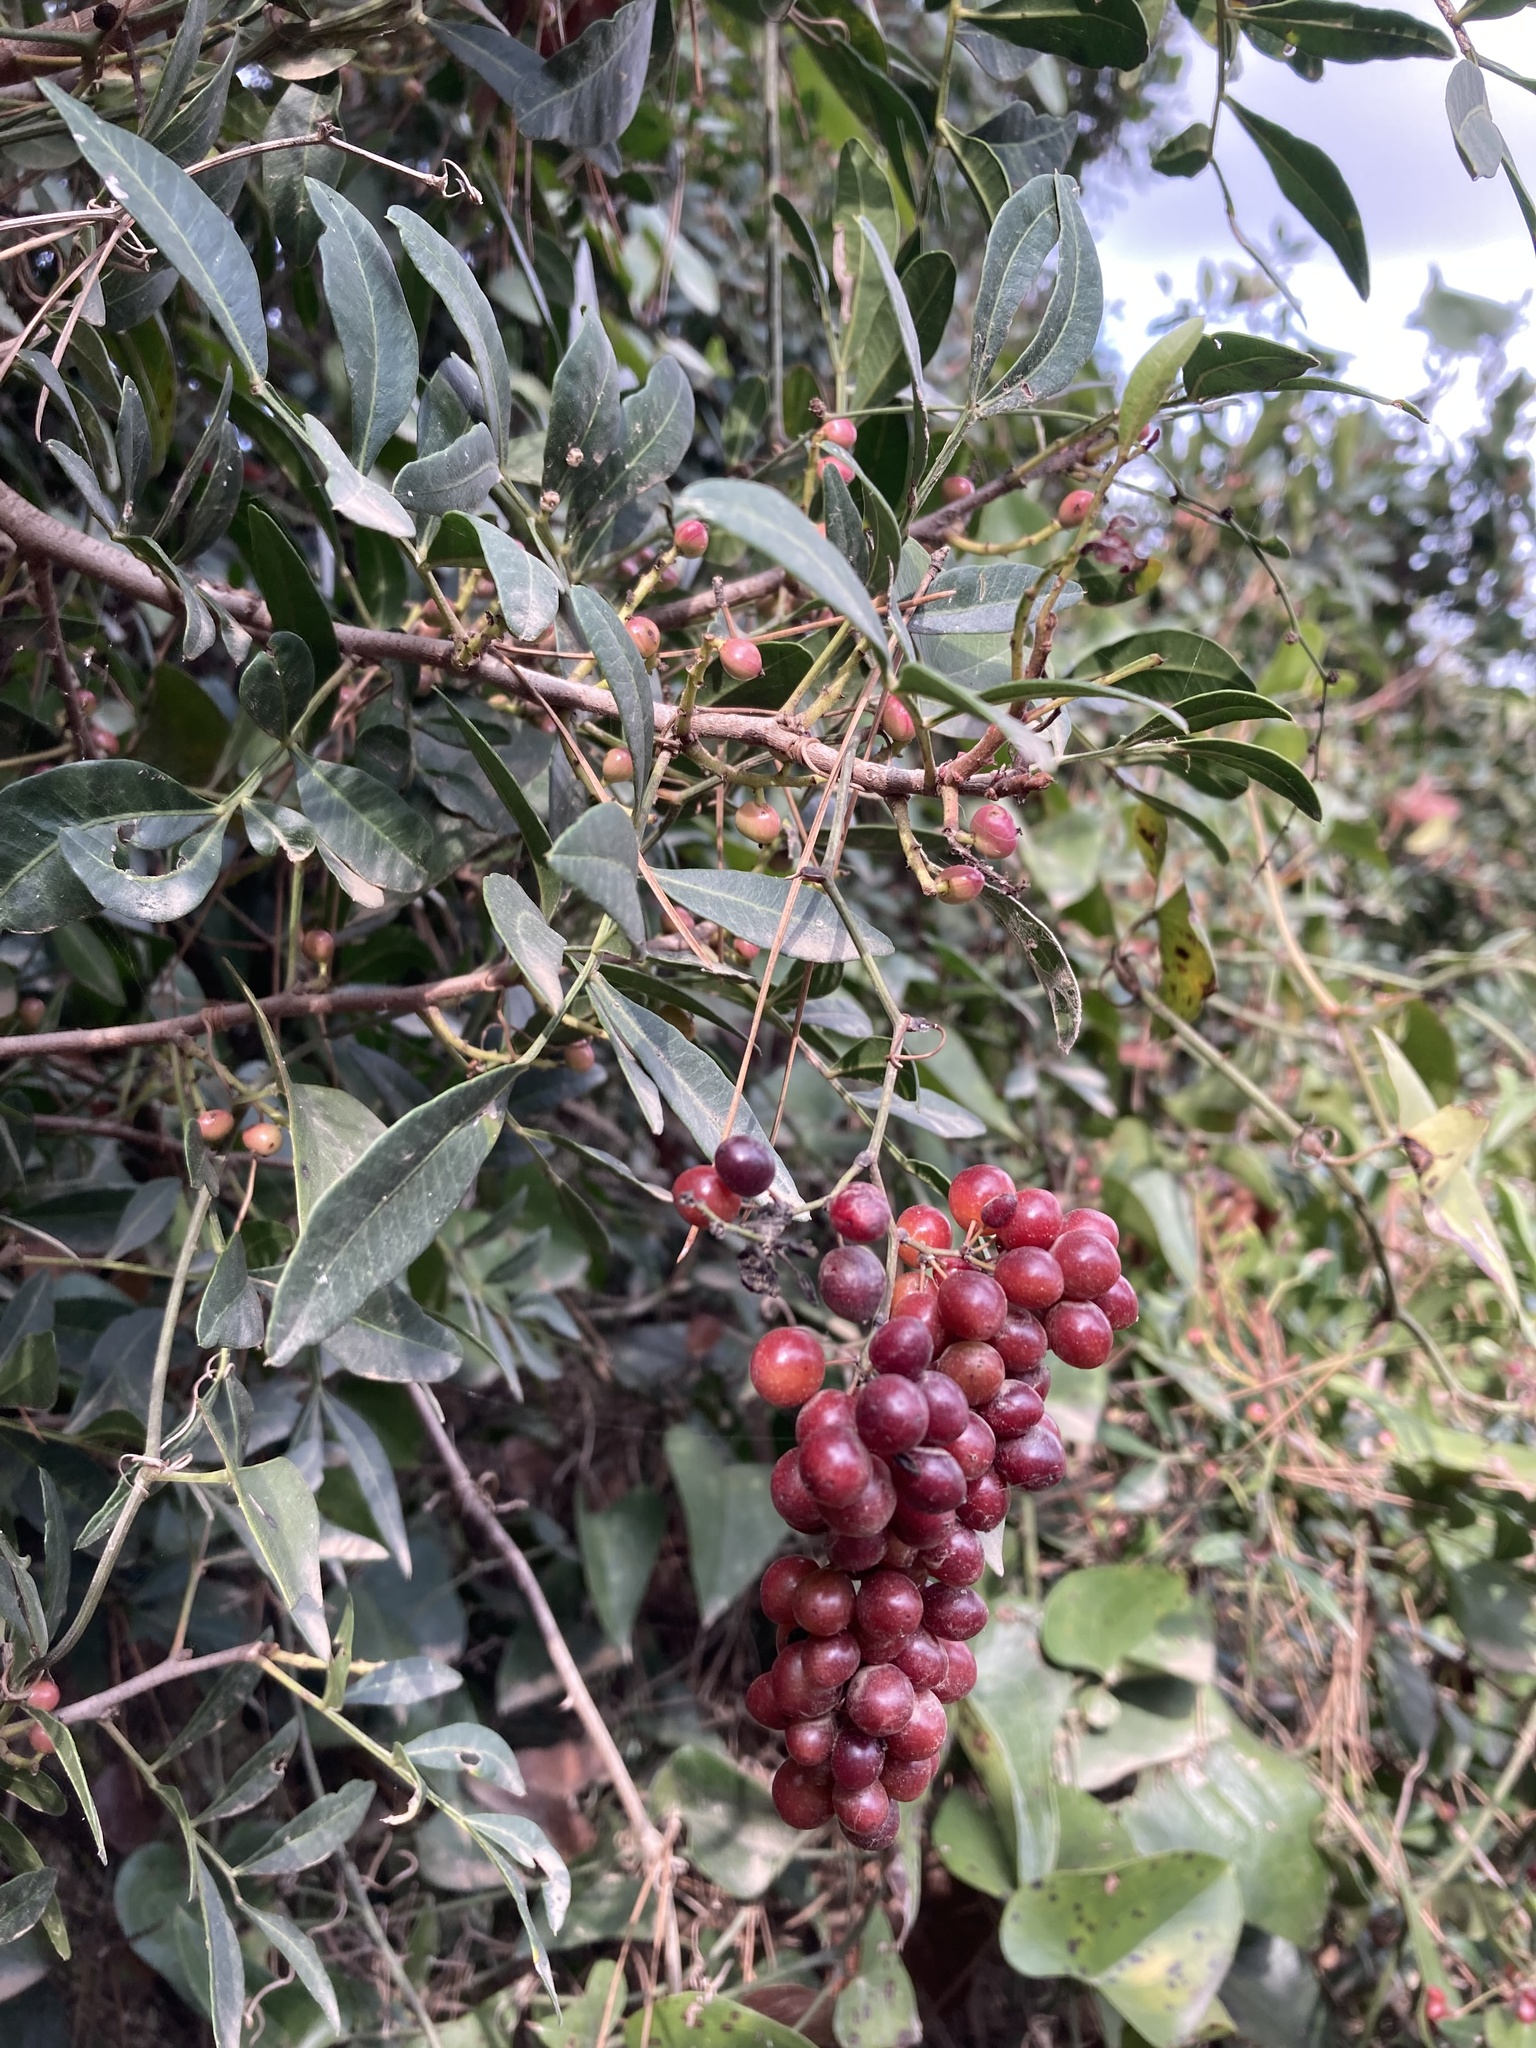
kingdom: Plantae
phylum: Tracheophyta
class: Magnoliopsida
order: Sapindales
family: Anacardiaceae
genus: Pistacia
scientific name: Pistacia lentiscus
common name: Lentisk
